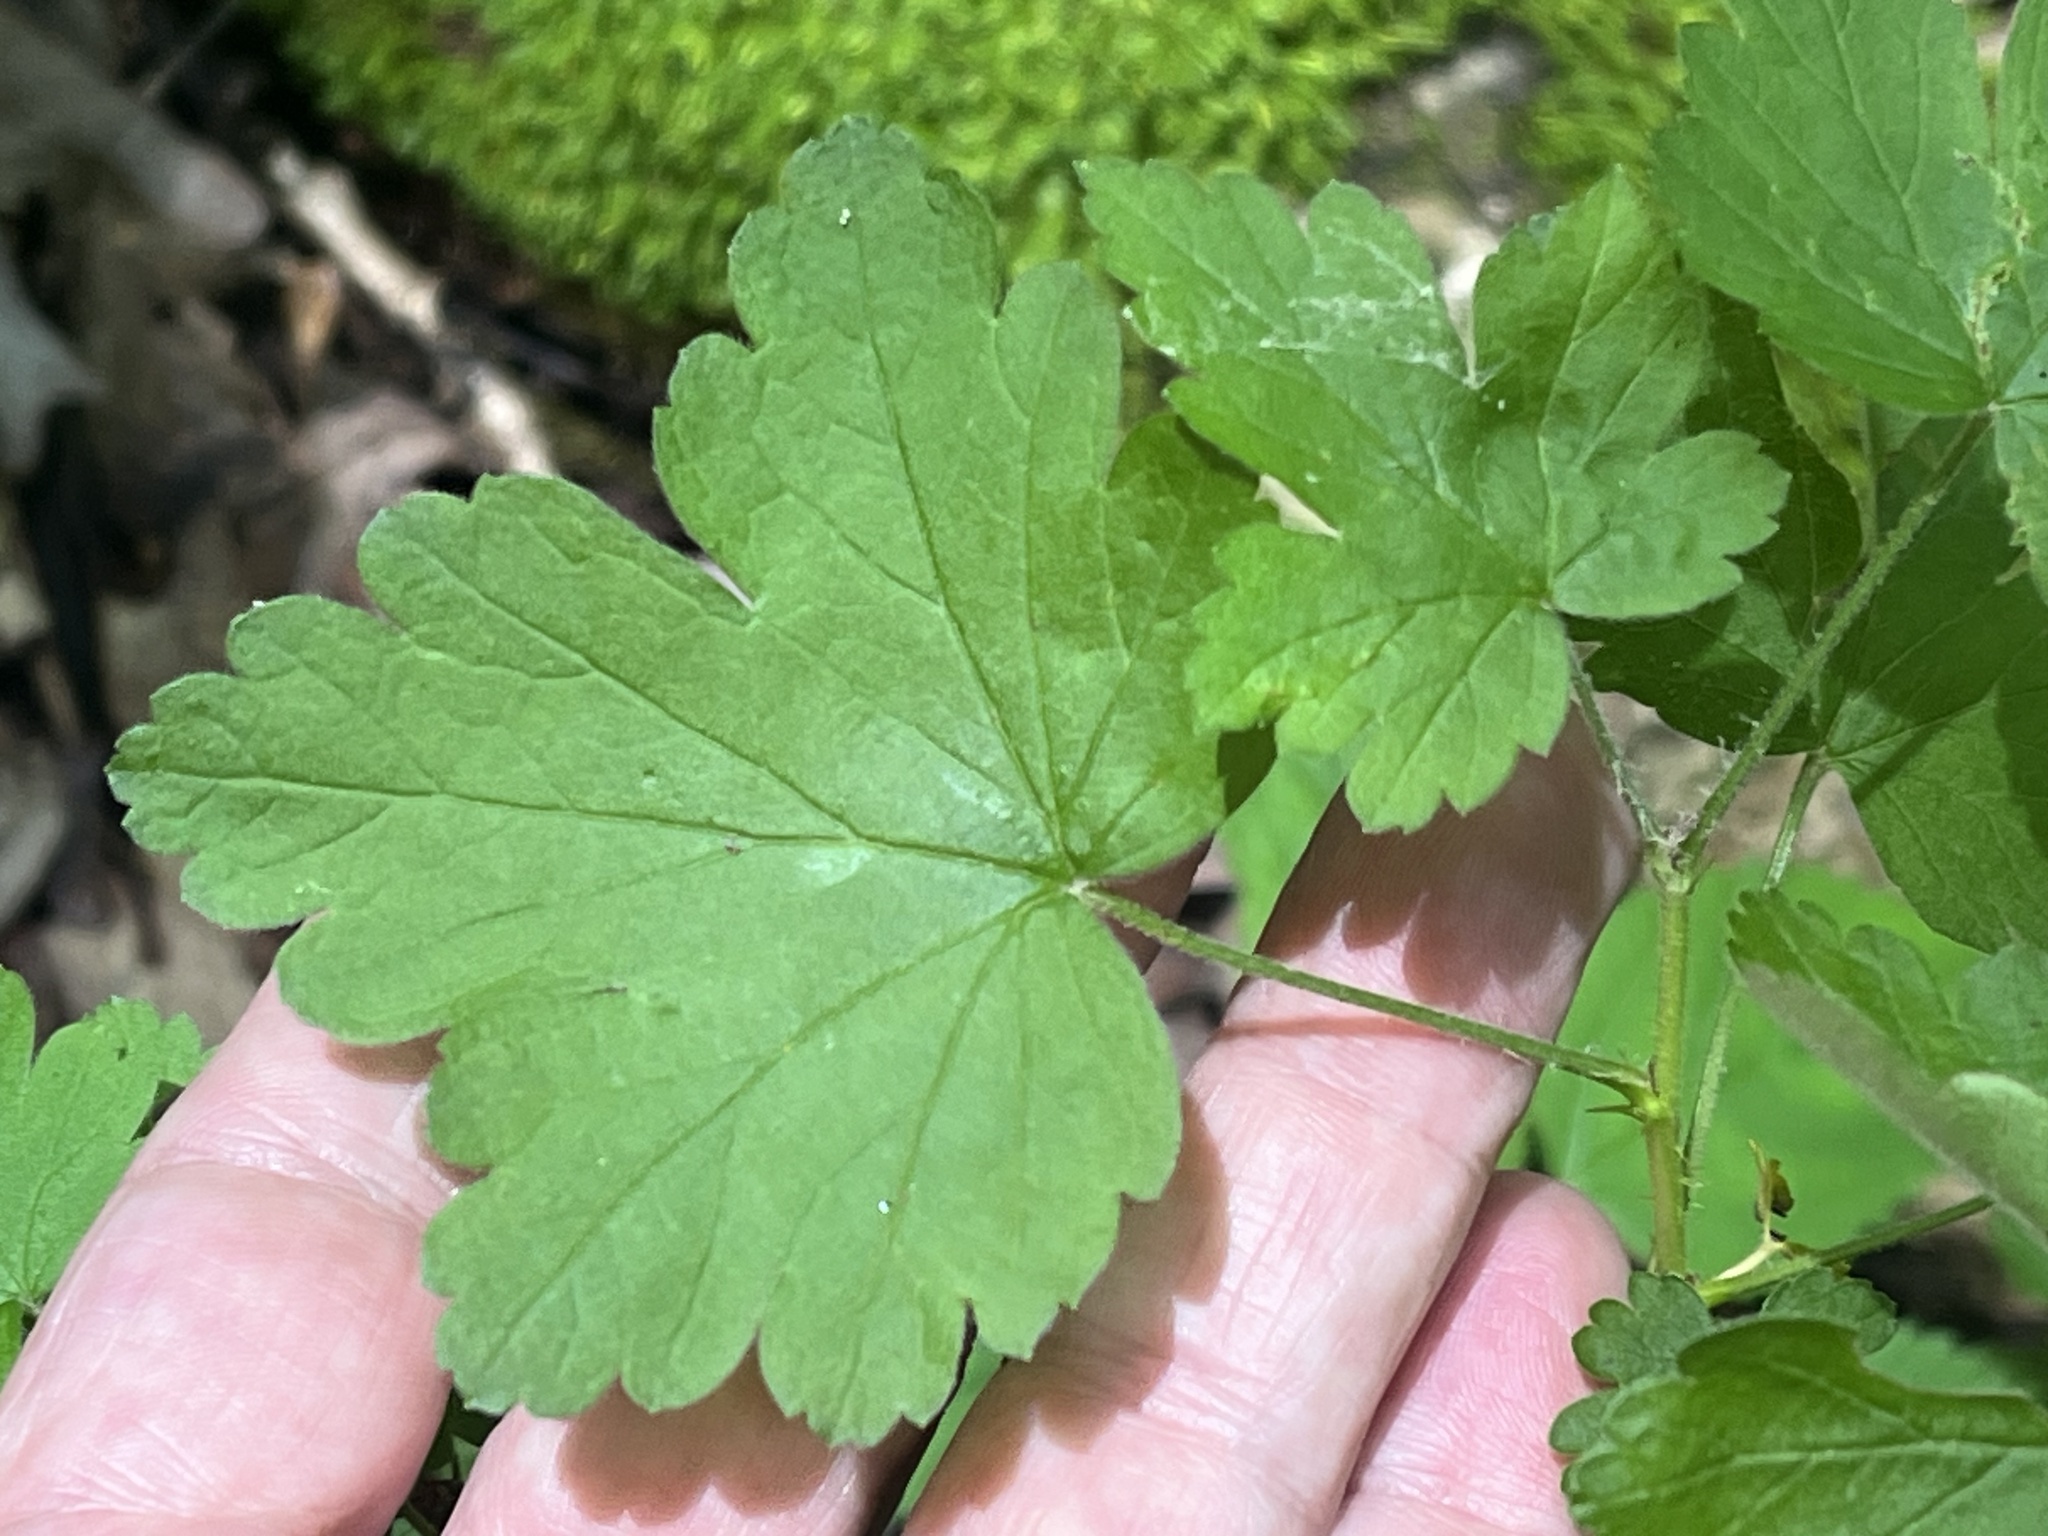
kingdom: Plantae
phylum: Tracheophyta
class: Magnoliopsida
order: Saxifragales
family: Grossulariaceae
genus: Ribes
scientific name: Ribes cynosbati
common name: American gooseberry
